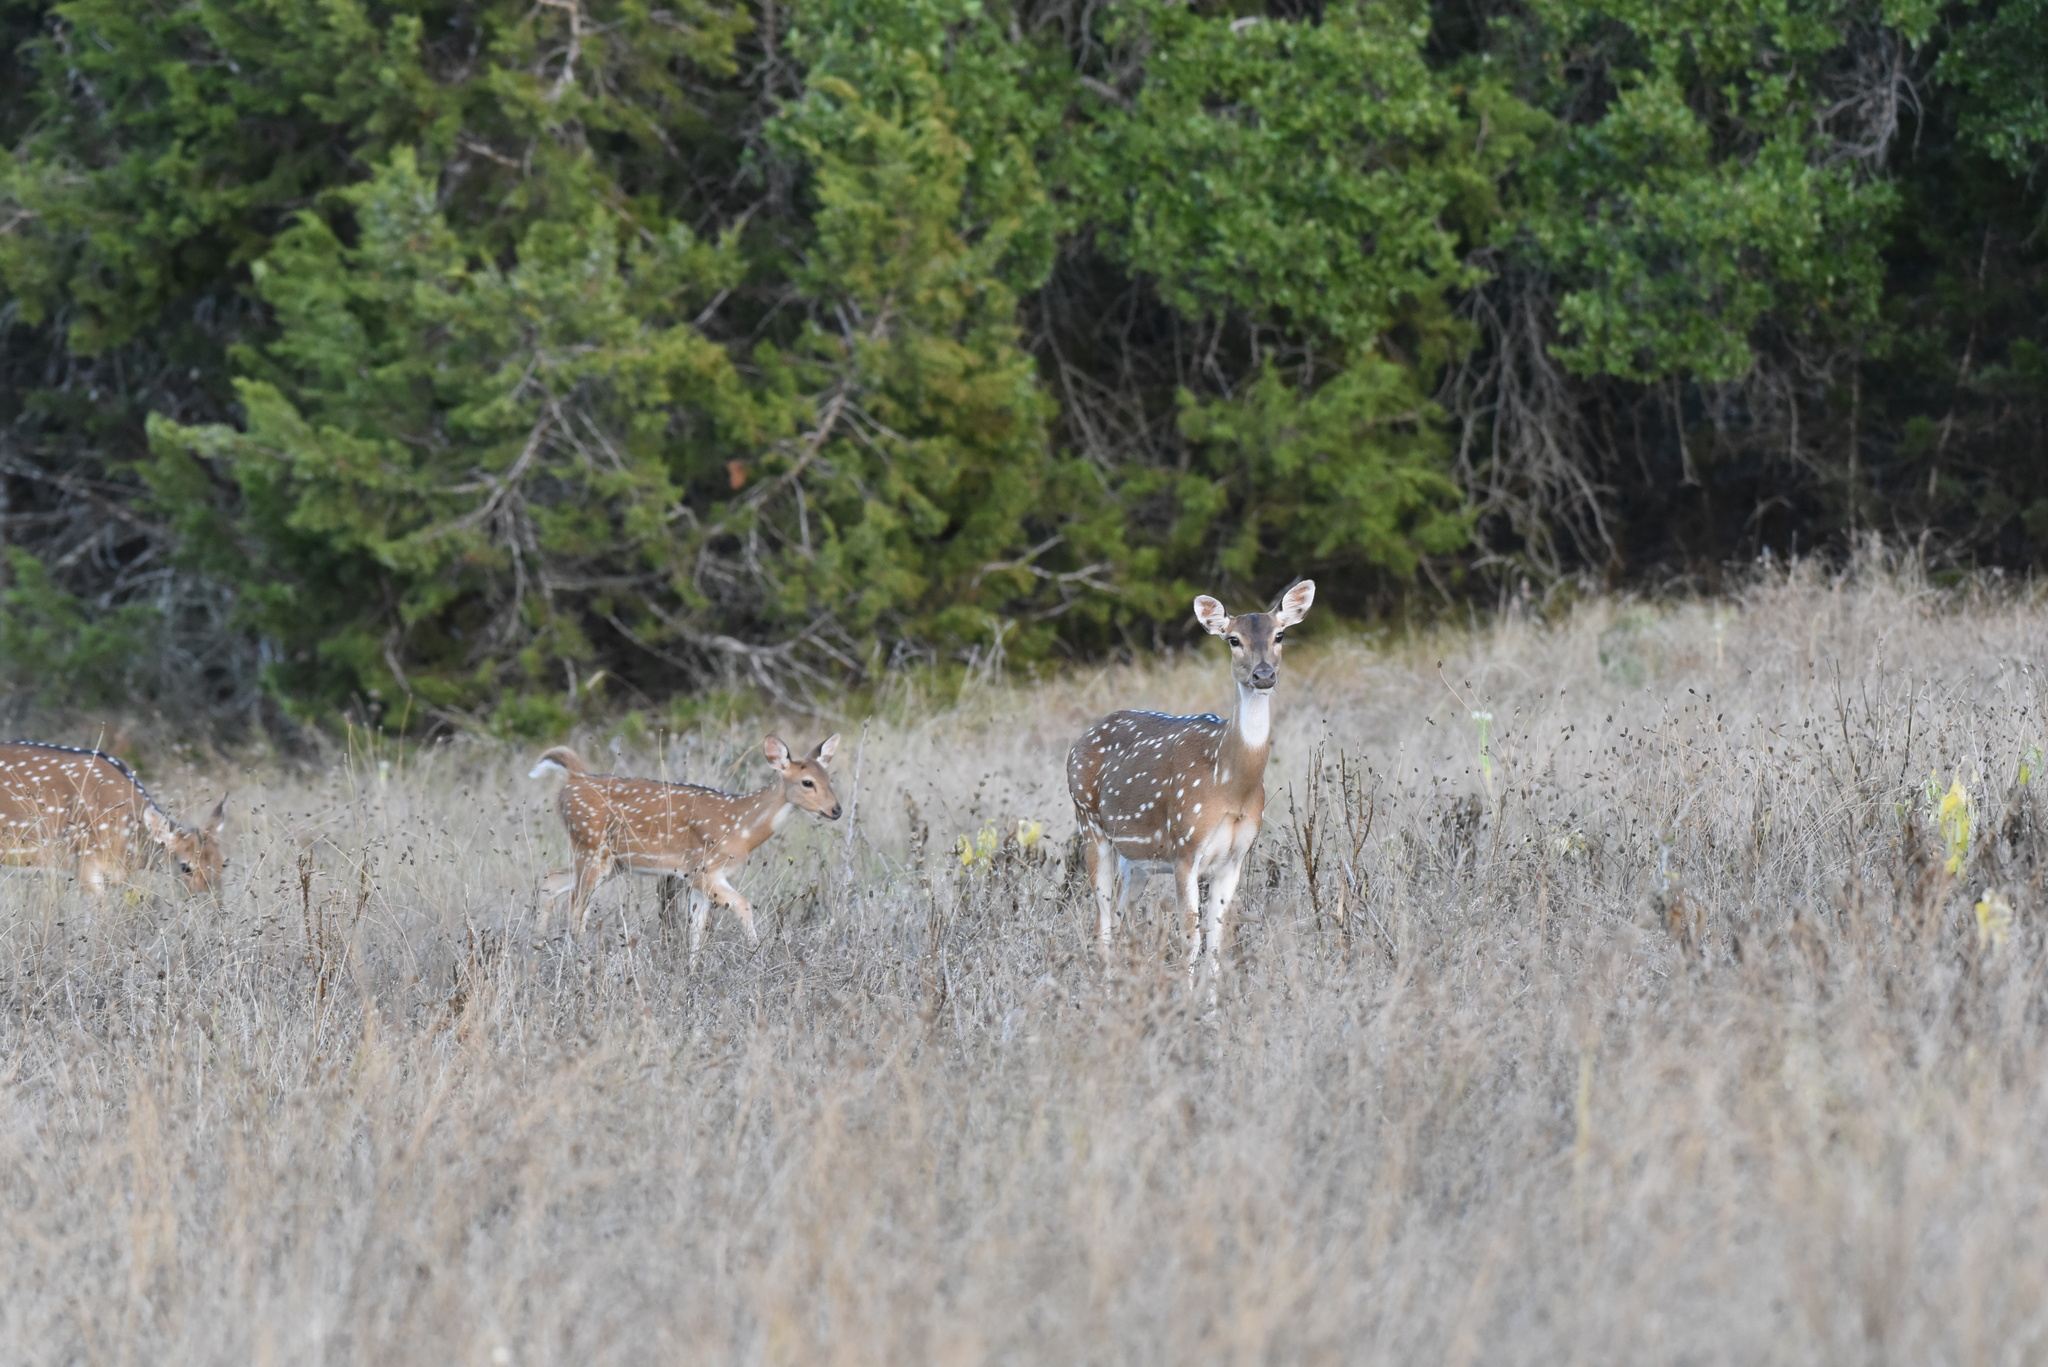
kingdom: Animalia
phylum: Chordata
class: Mammalia
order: Artiodactyla
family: Cervidae
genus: Axis
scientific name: Axis axis
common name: Chital
